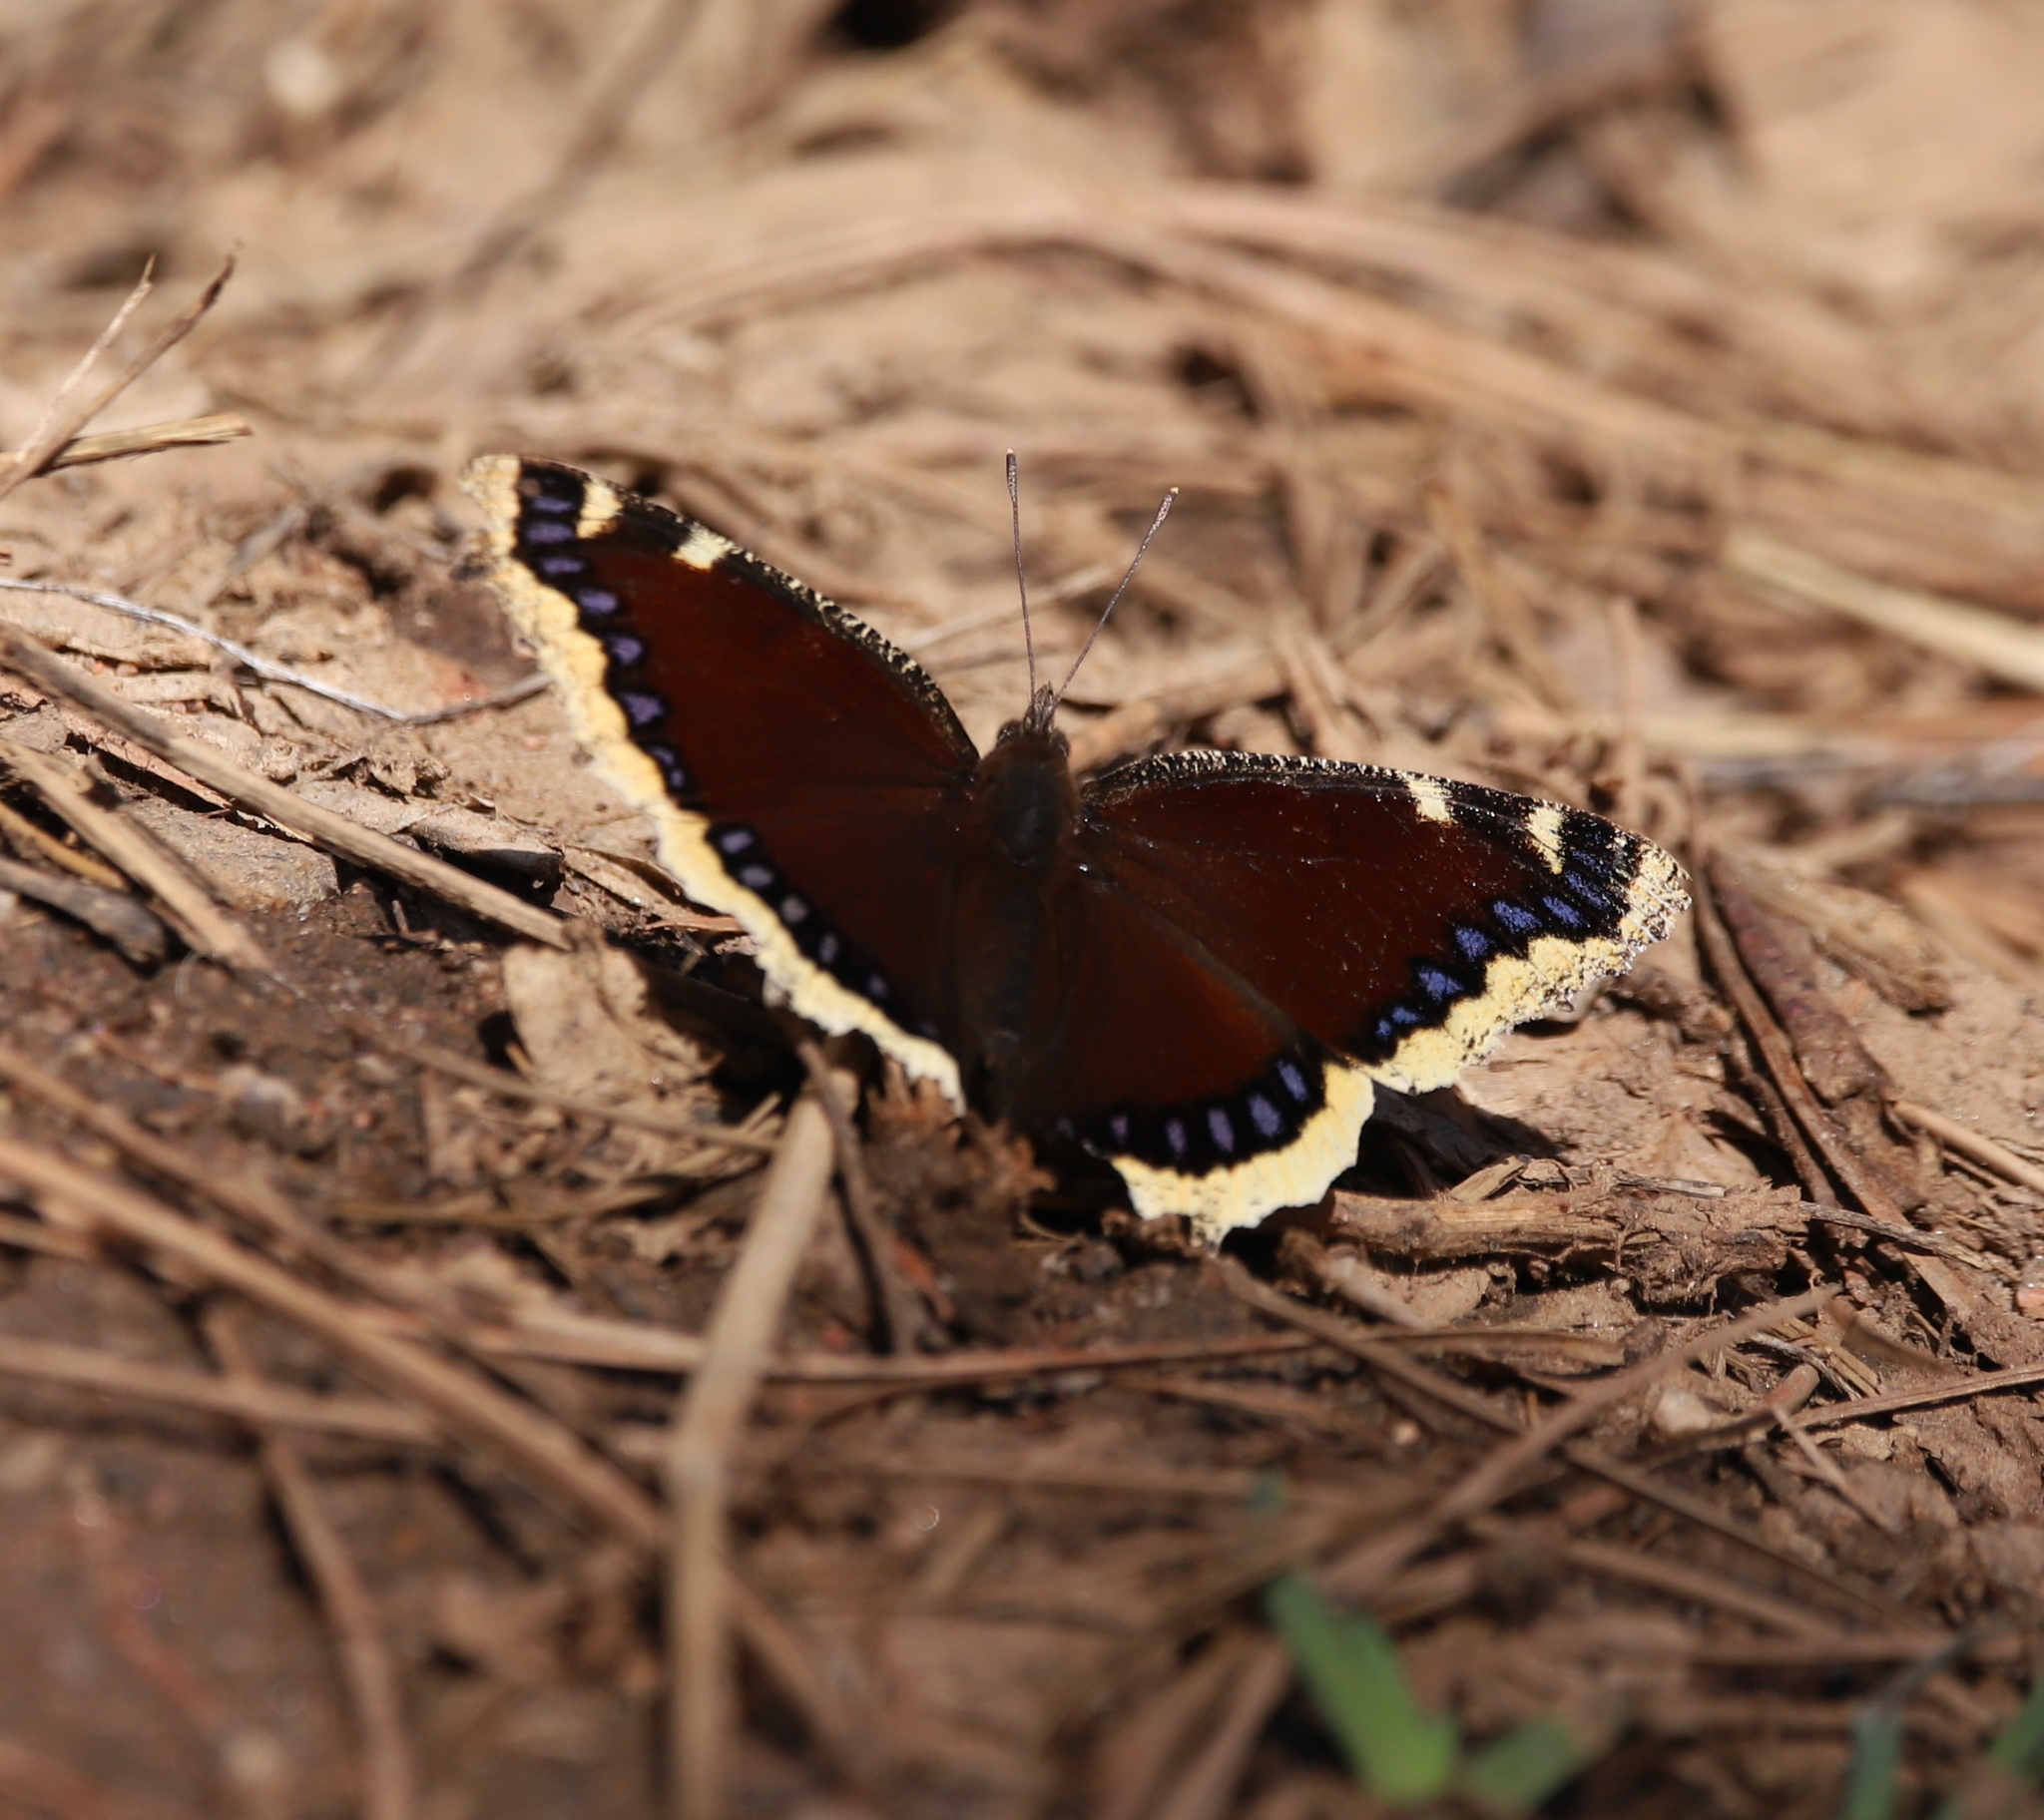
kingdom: Animalia
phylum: Arthropoda
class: Insecta
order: Lepidoptera
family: Nymphalidae
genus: Nymphalis
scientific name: Nymphalis antiopa
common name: Camberwell beauty
